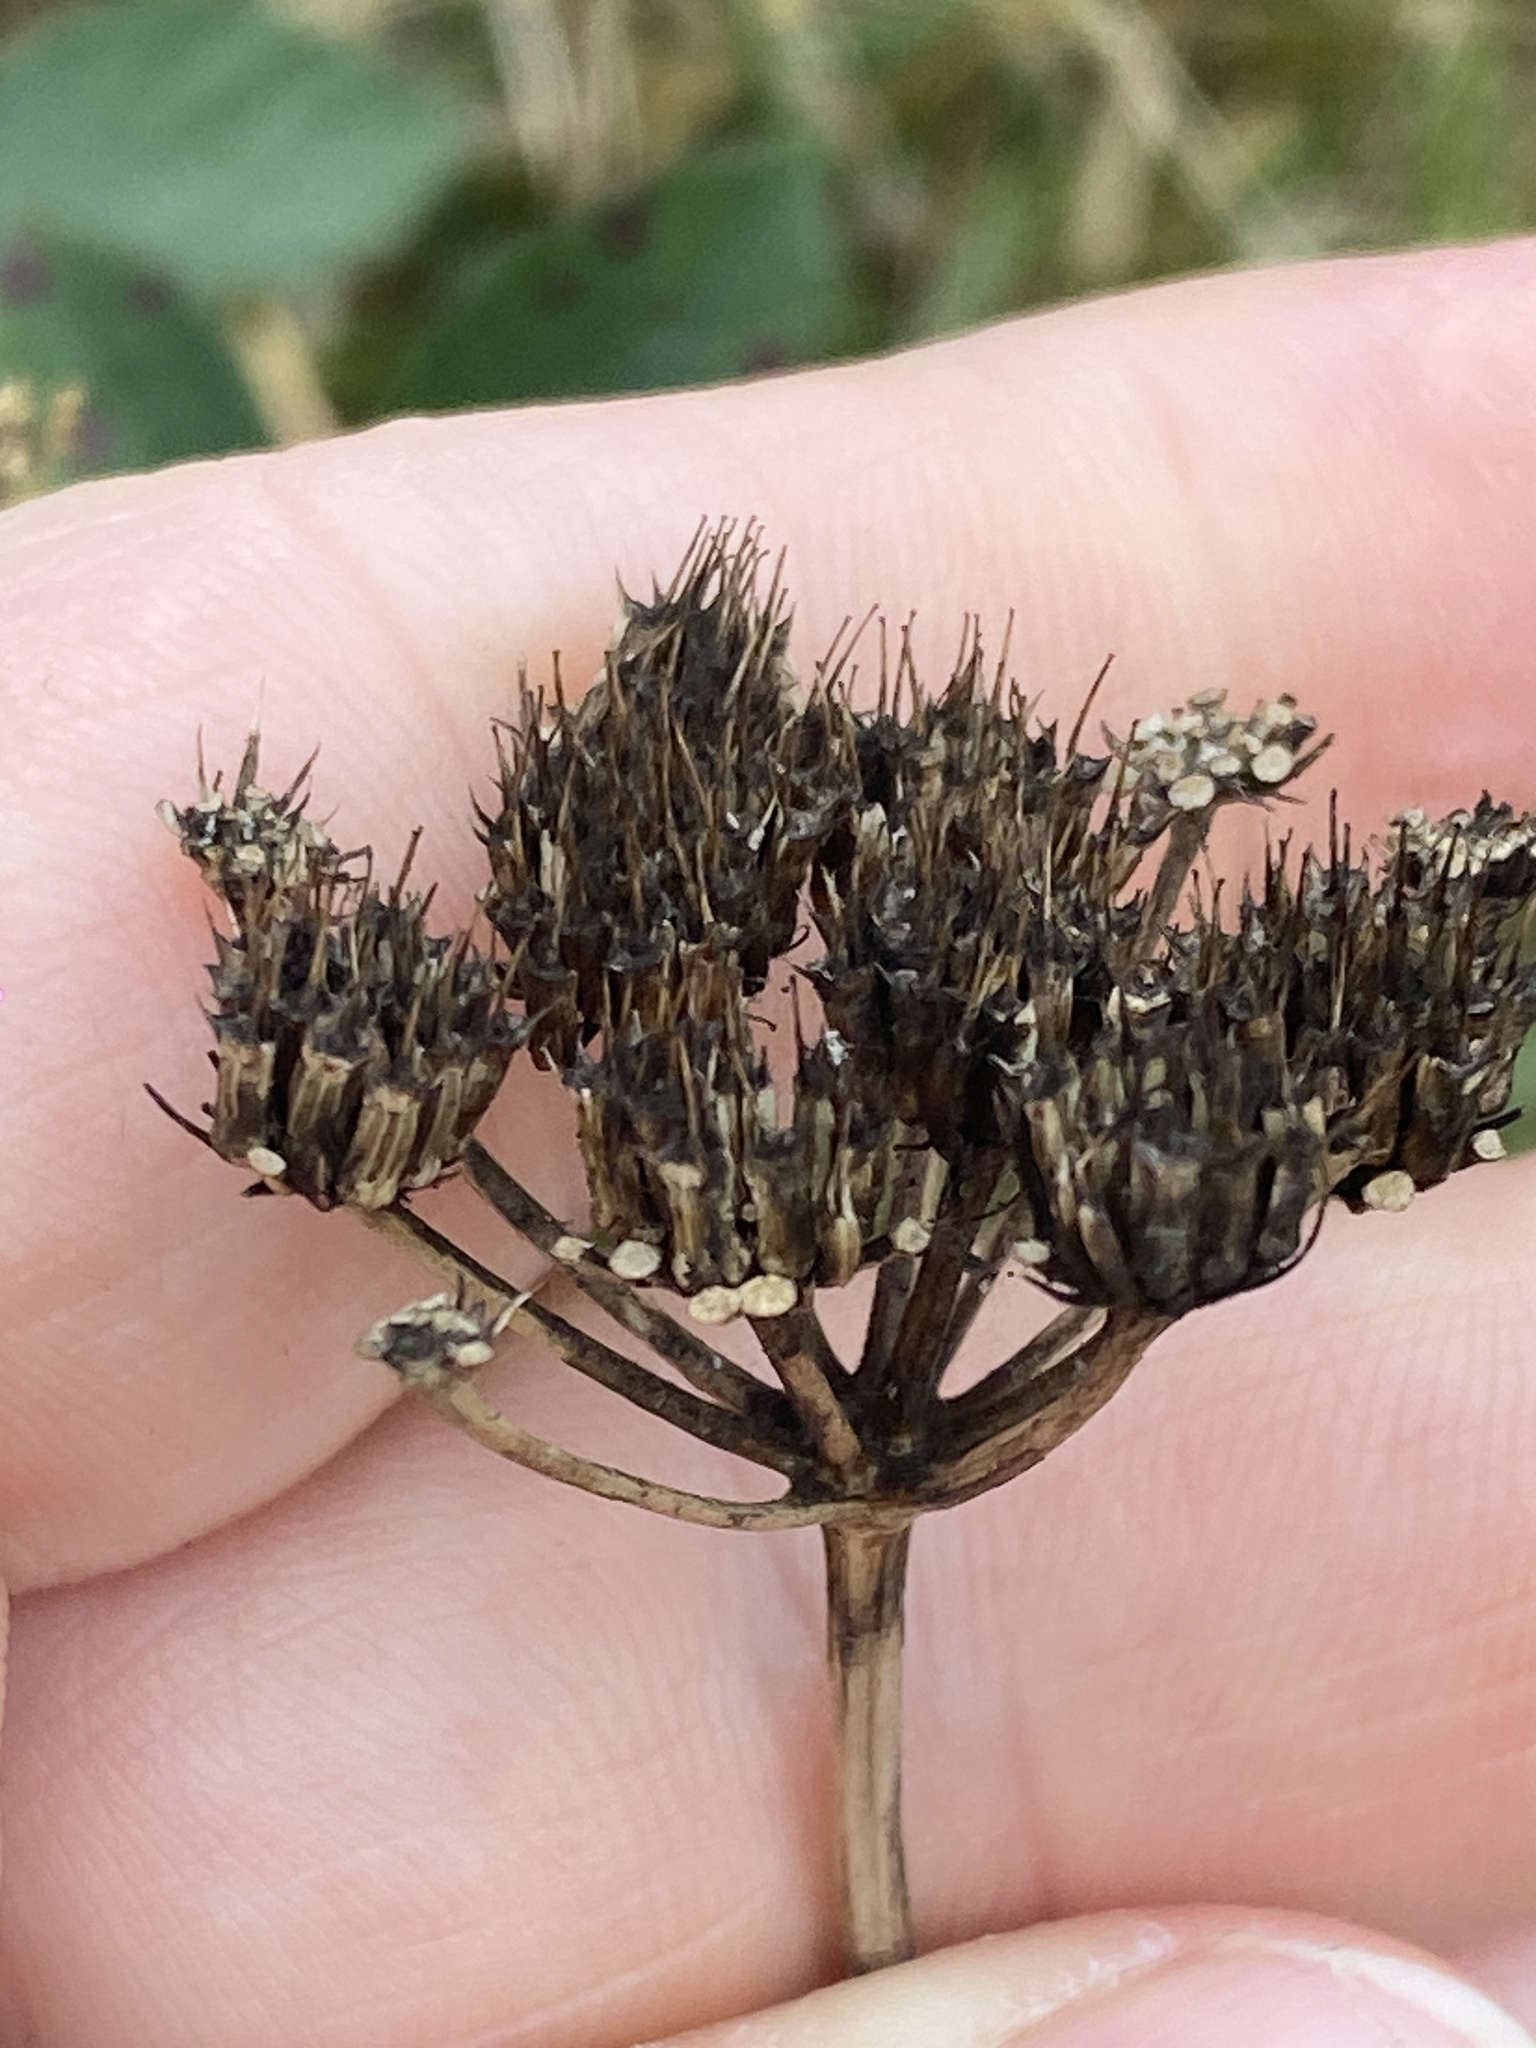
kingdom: Plantae
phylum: Tracheophyta
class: Magnoliopsida
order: Apiales
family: Apiaceae
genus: Oenanthe
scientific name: Oenanthe pimpinelloides
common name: Corky-fruited water-dropwort
